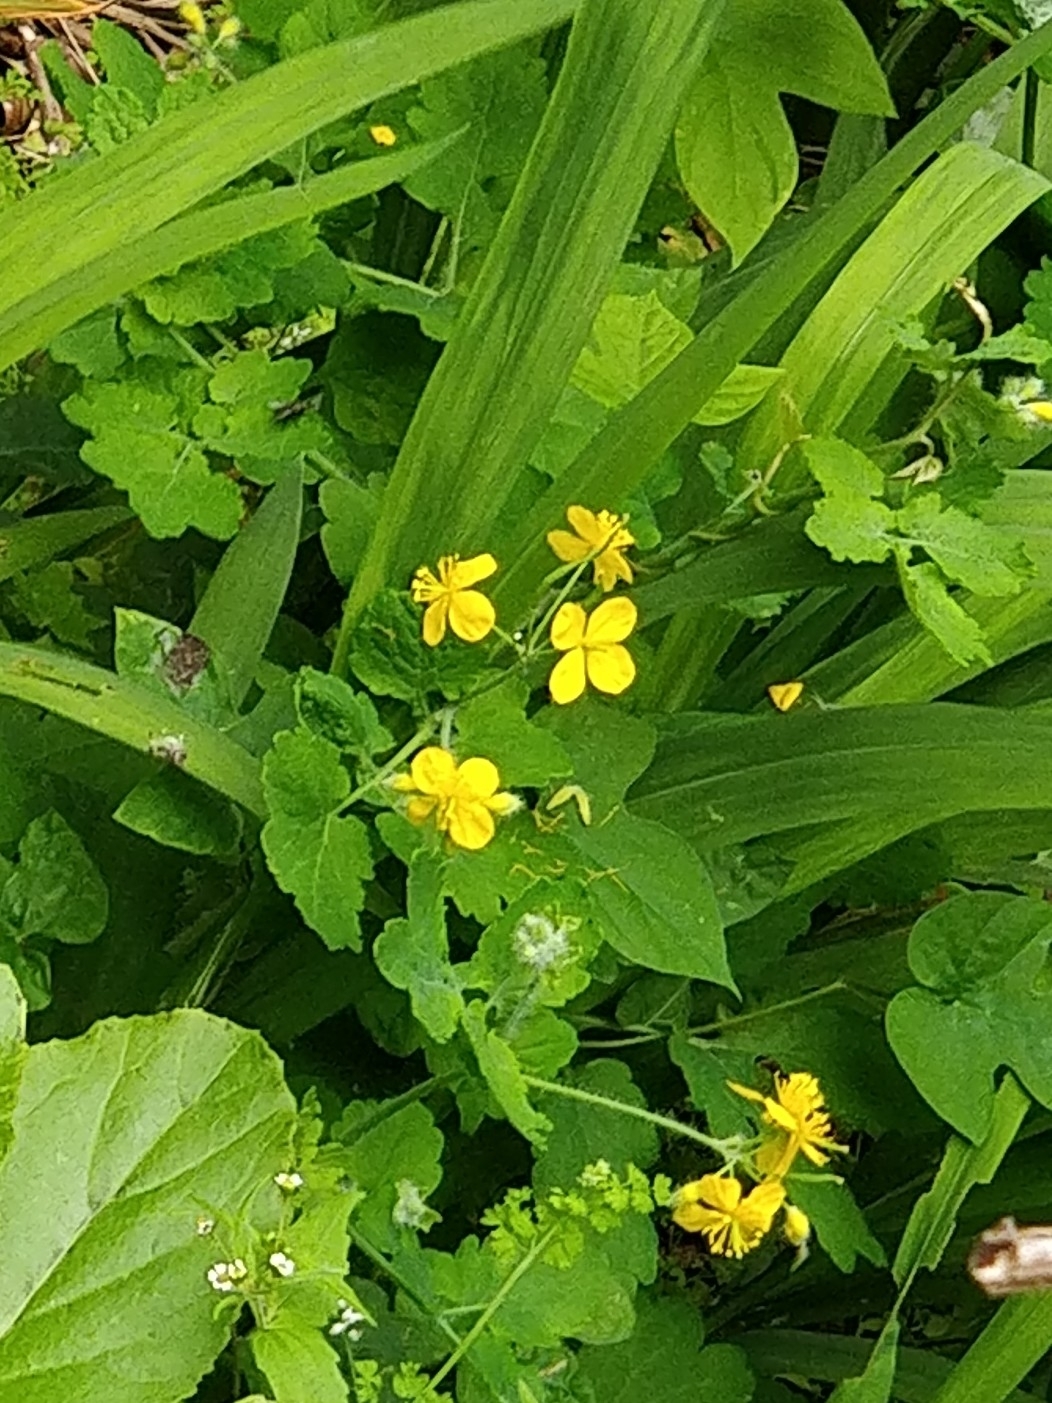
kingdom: Plantae
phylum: Tracheophyta
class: Magnoliopsida
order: Ranunculales
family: Papaveraceae
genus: Chelidonium
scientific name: Chelidonium majus
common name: Greater celandine
